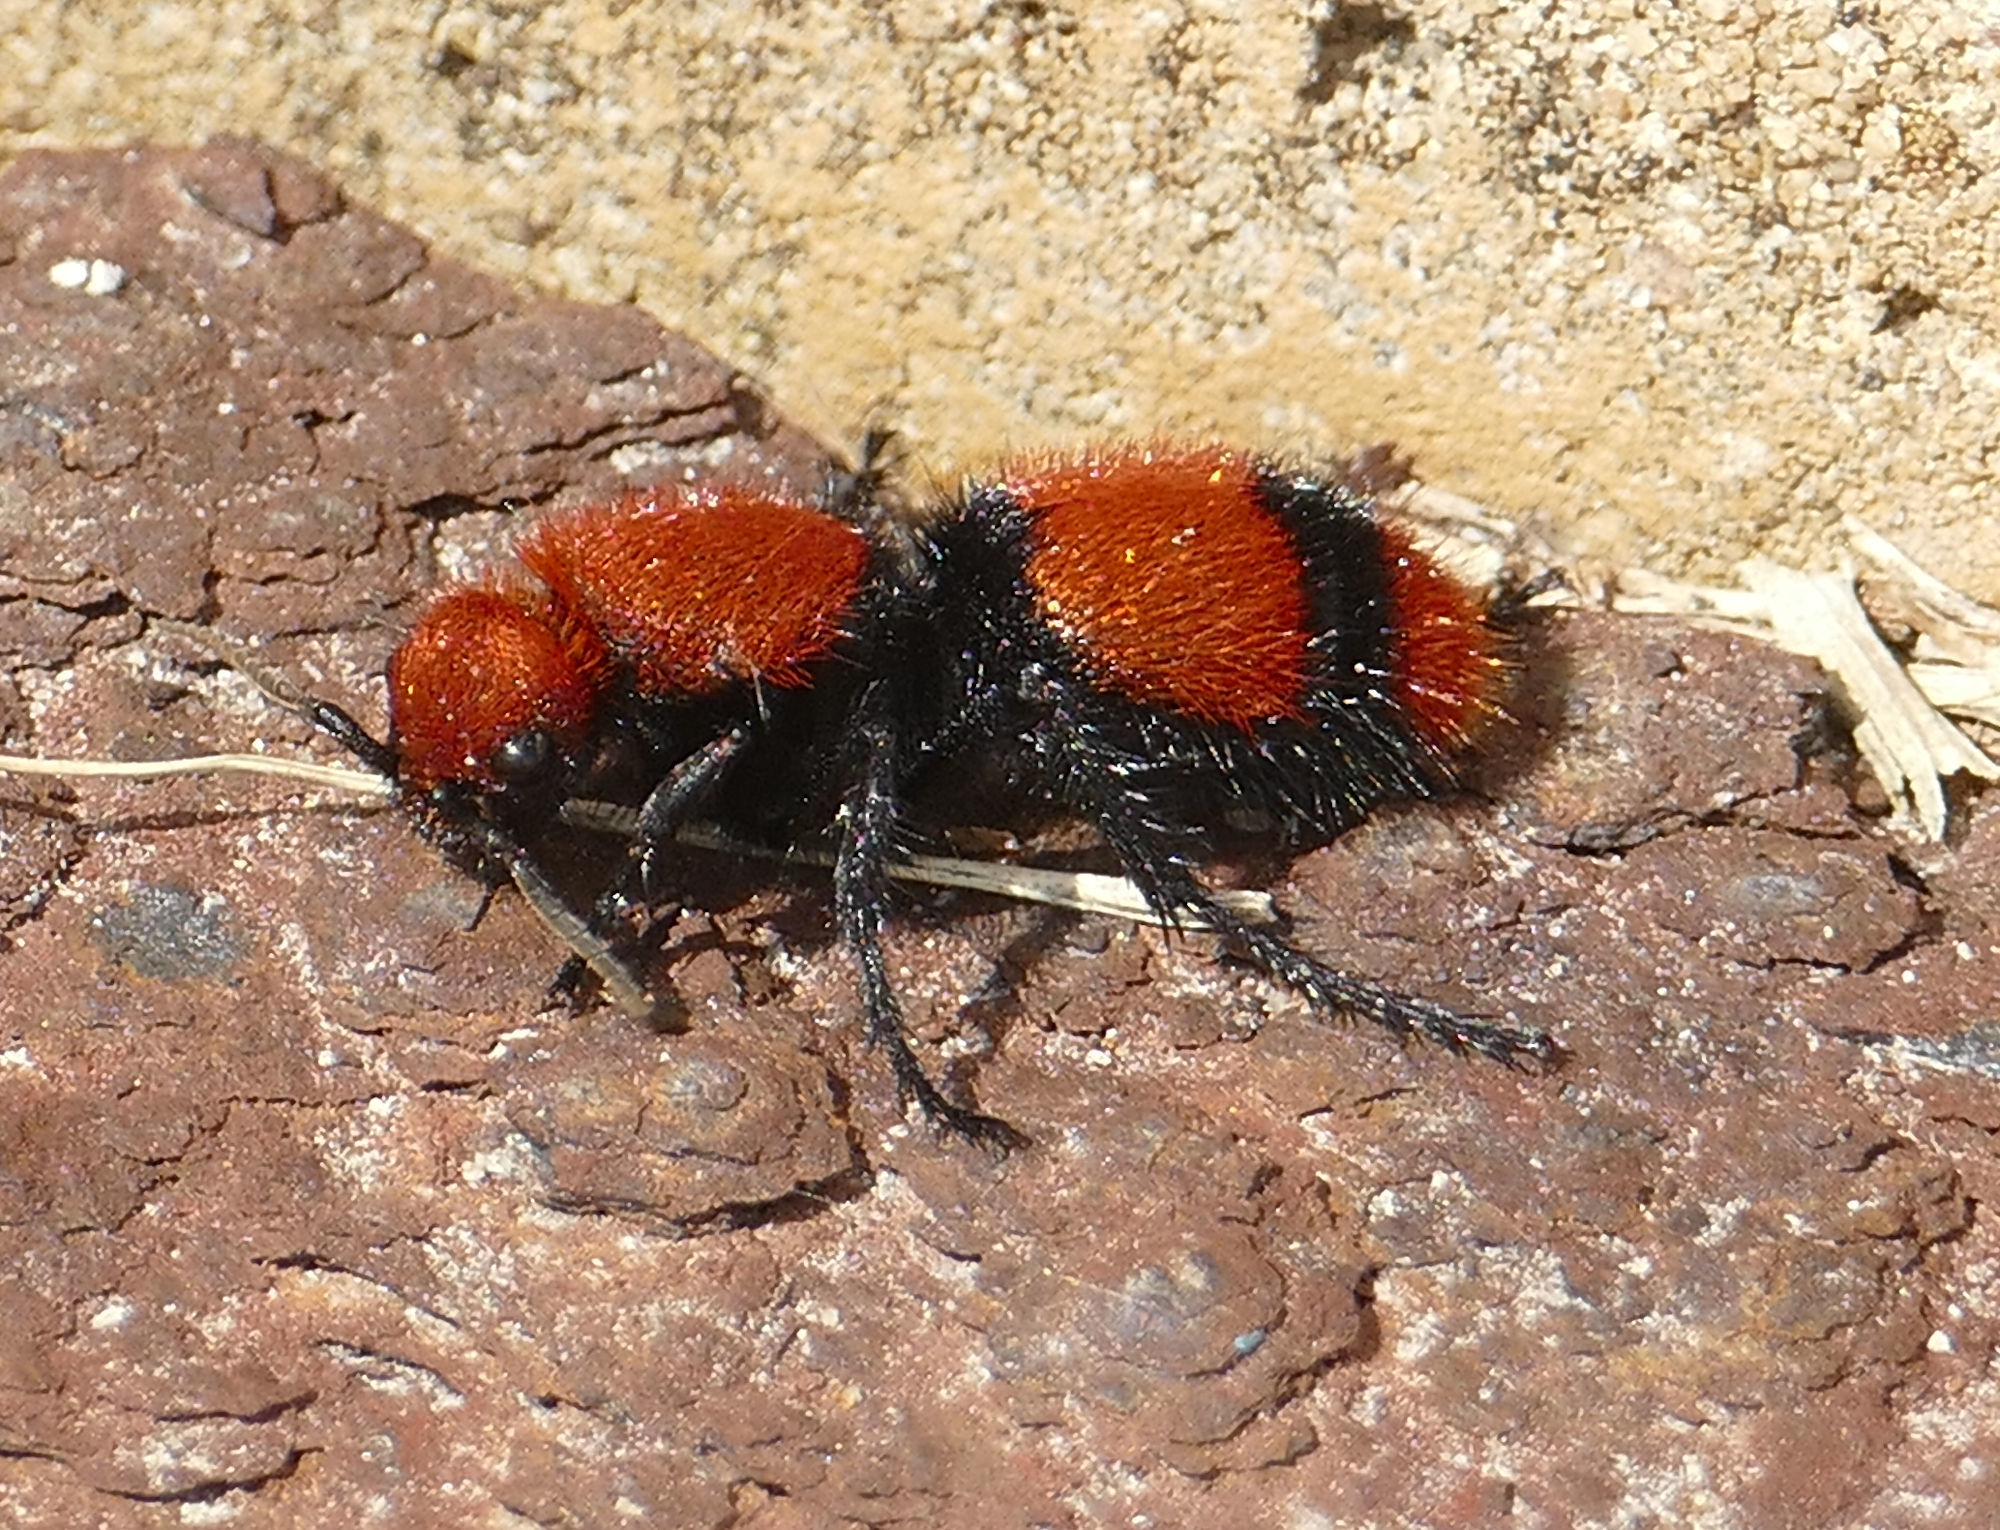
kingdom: Animalia
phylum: Arthropoda
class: Insecta
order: Hymenoptera
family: Mutillidae
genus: Dasymutilla
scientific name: Dasymutilla occidentalis
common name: Common eastern velvet ant
